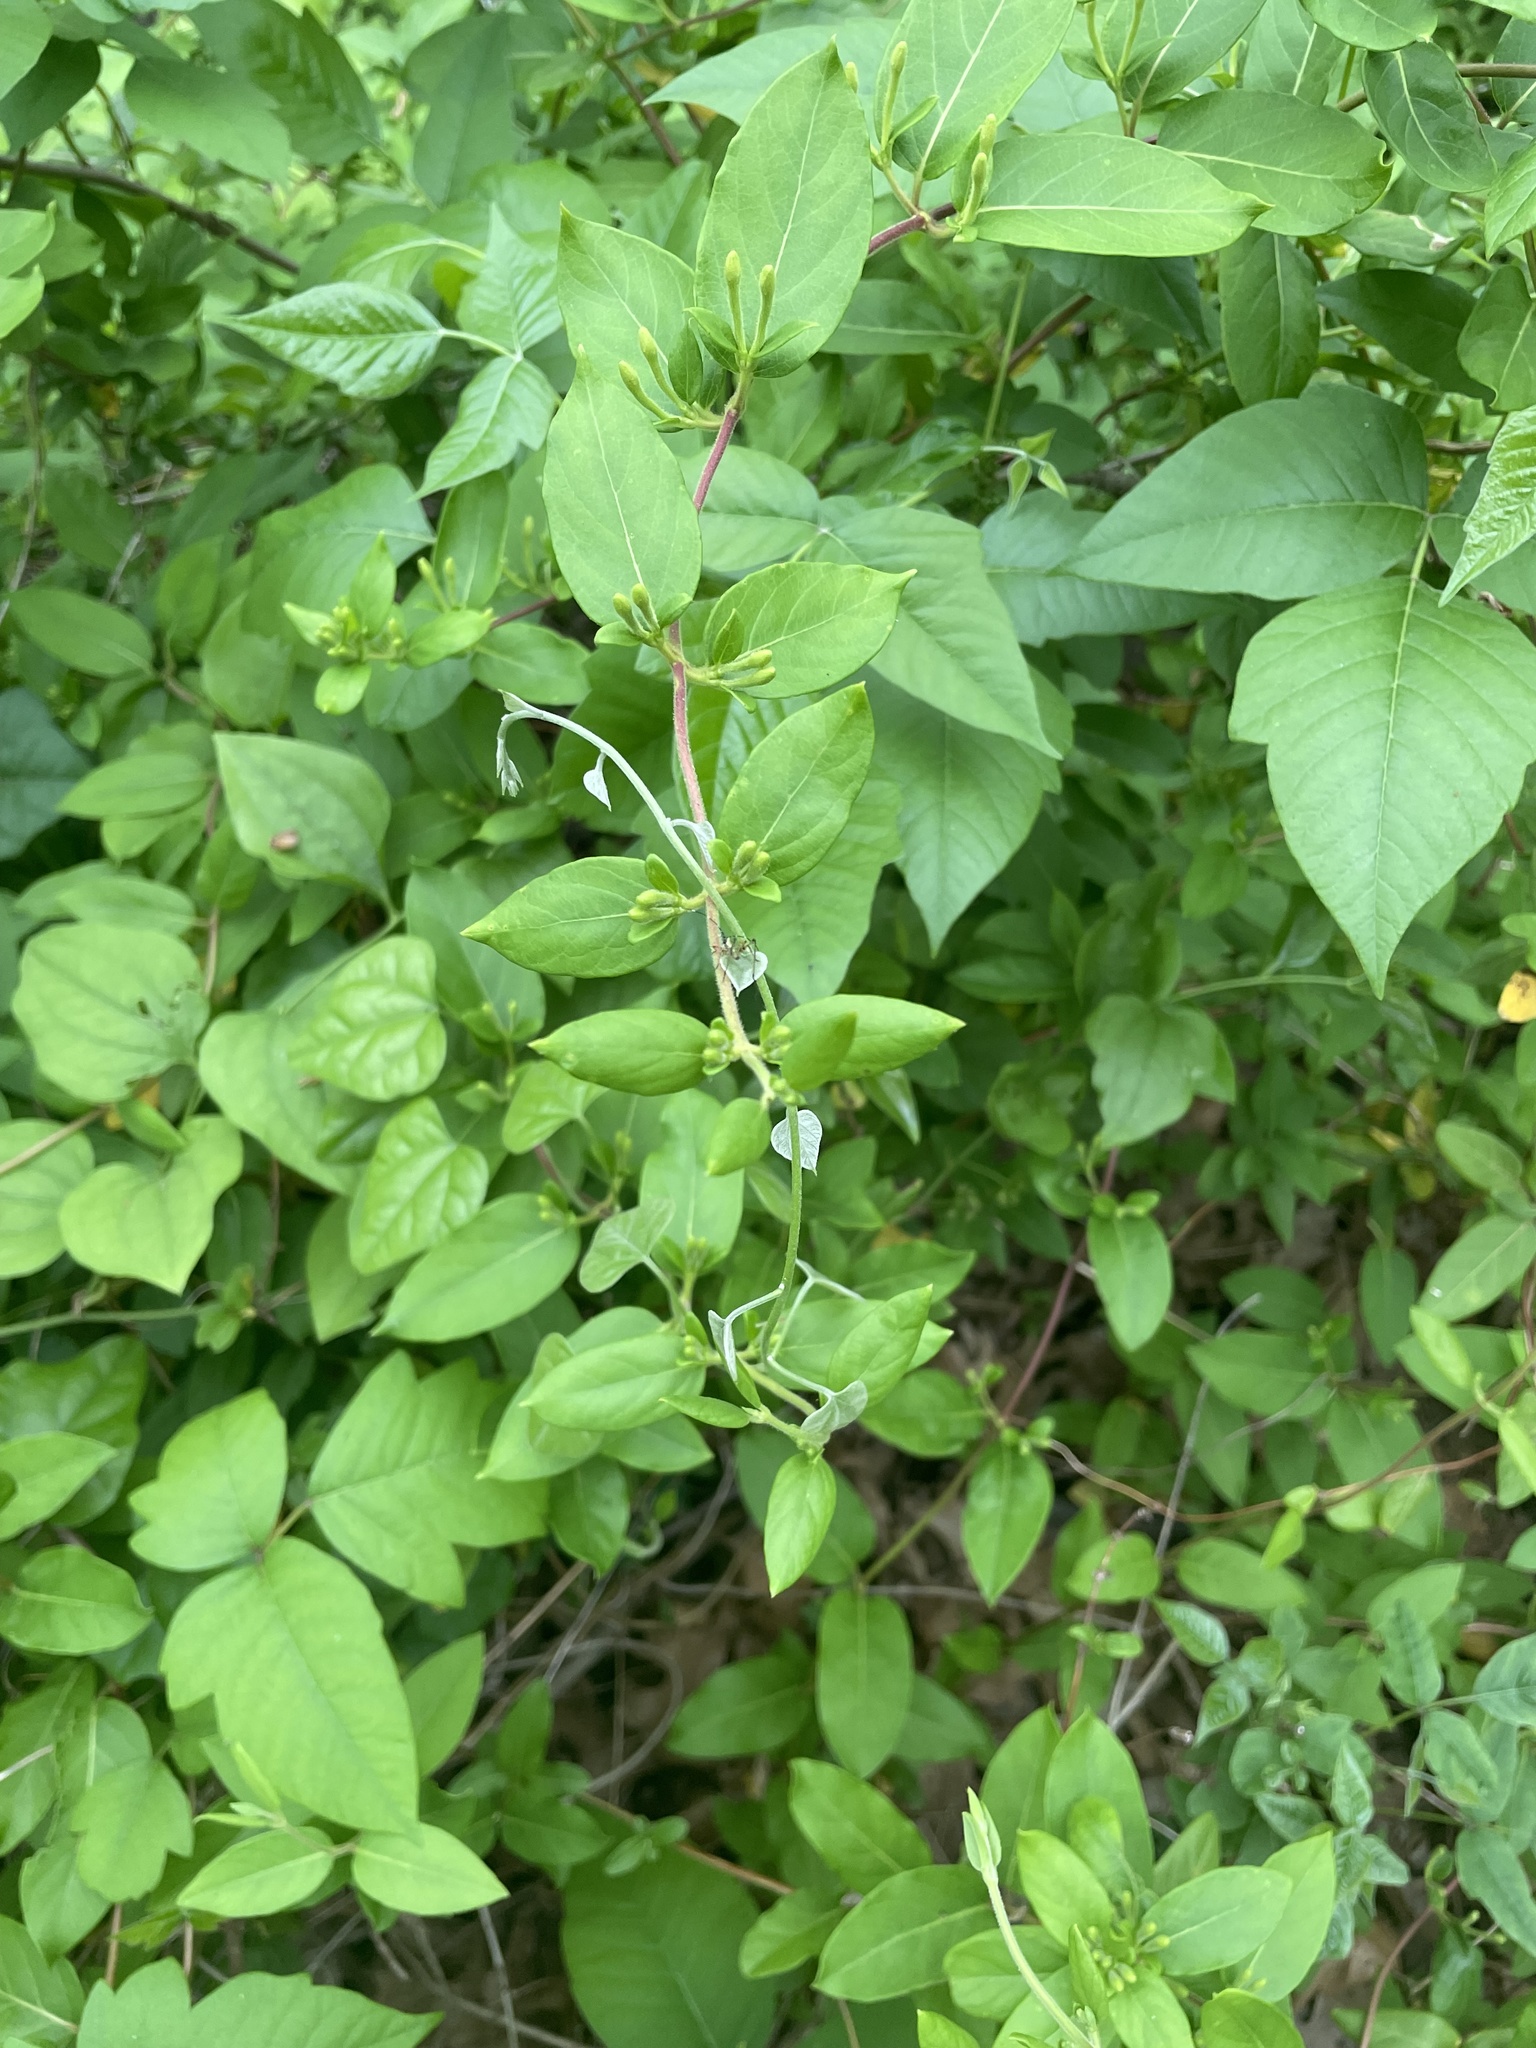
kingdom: Plantae
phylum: Tracheophyta
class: Magnoliopsida
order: Dipsacales
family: Caprifoliaceae
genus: Lonicera
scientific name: Lonicera japonica
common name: Japanese honeysuckle
